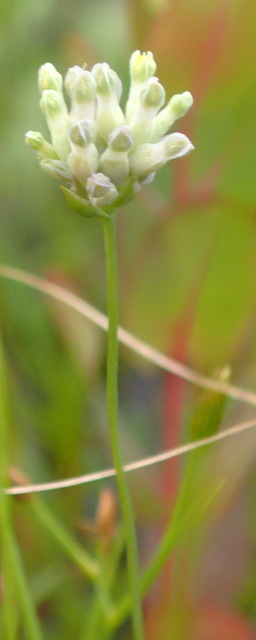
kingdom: Plantae
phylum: Tracheophyta
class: Liliopsida
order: Dioscoreales
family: Burmanniaceae
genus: Burmannia
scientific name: Burmannia capitata
